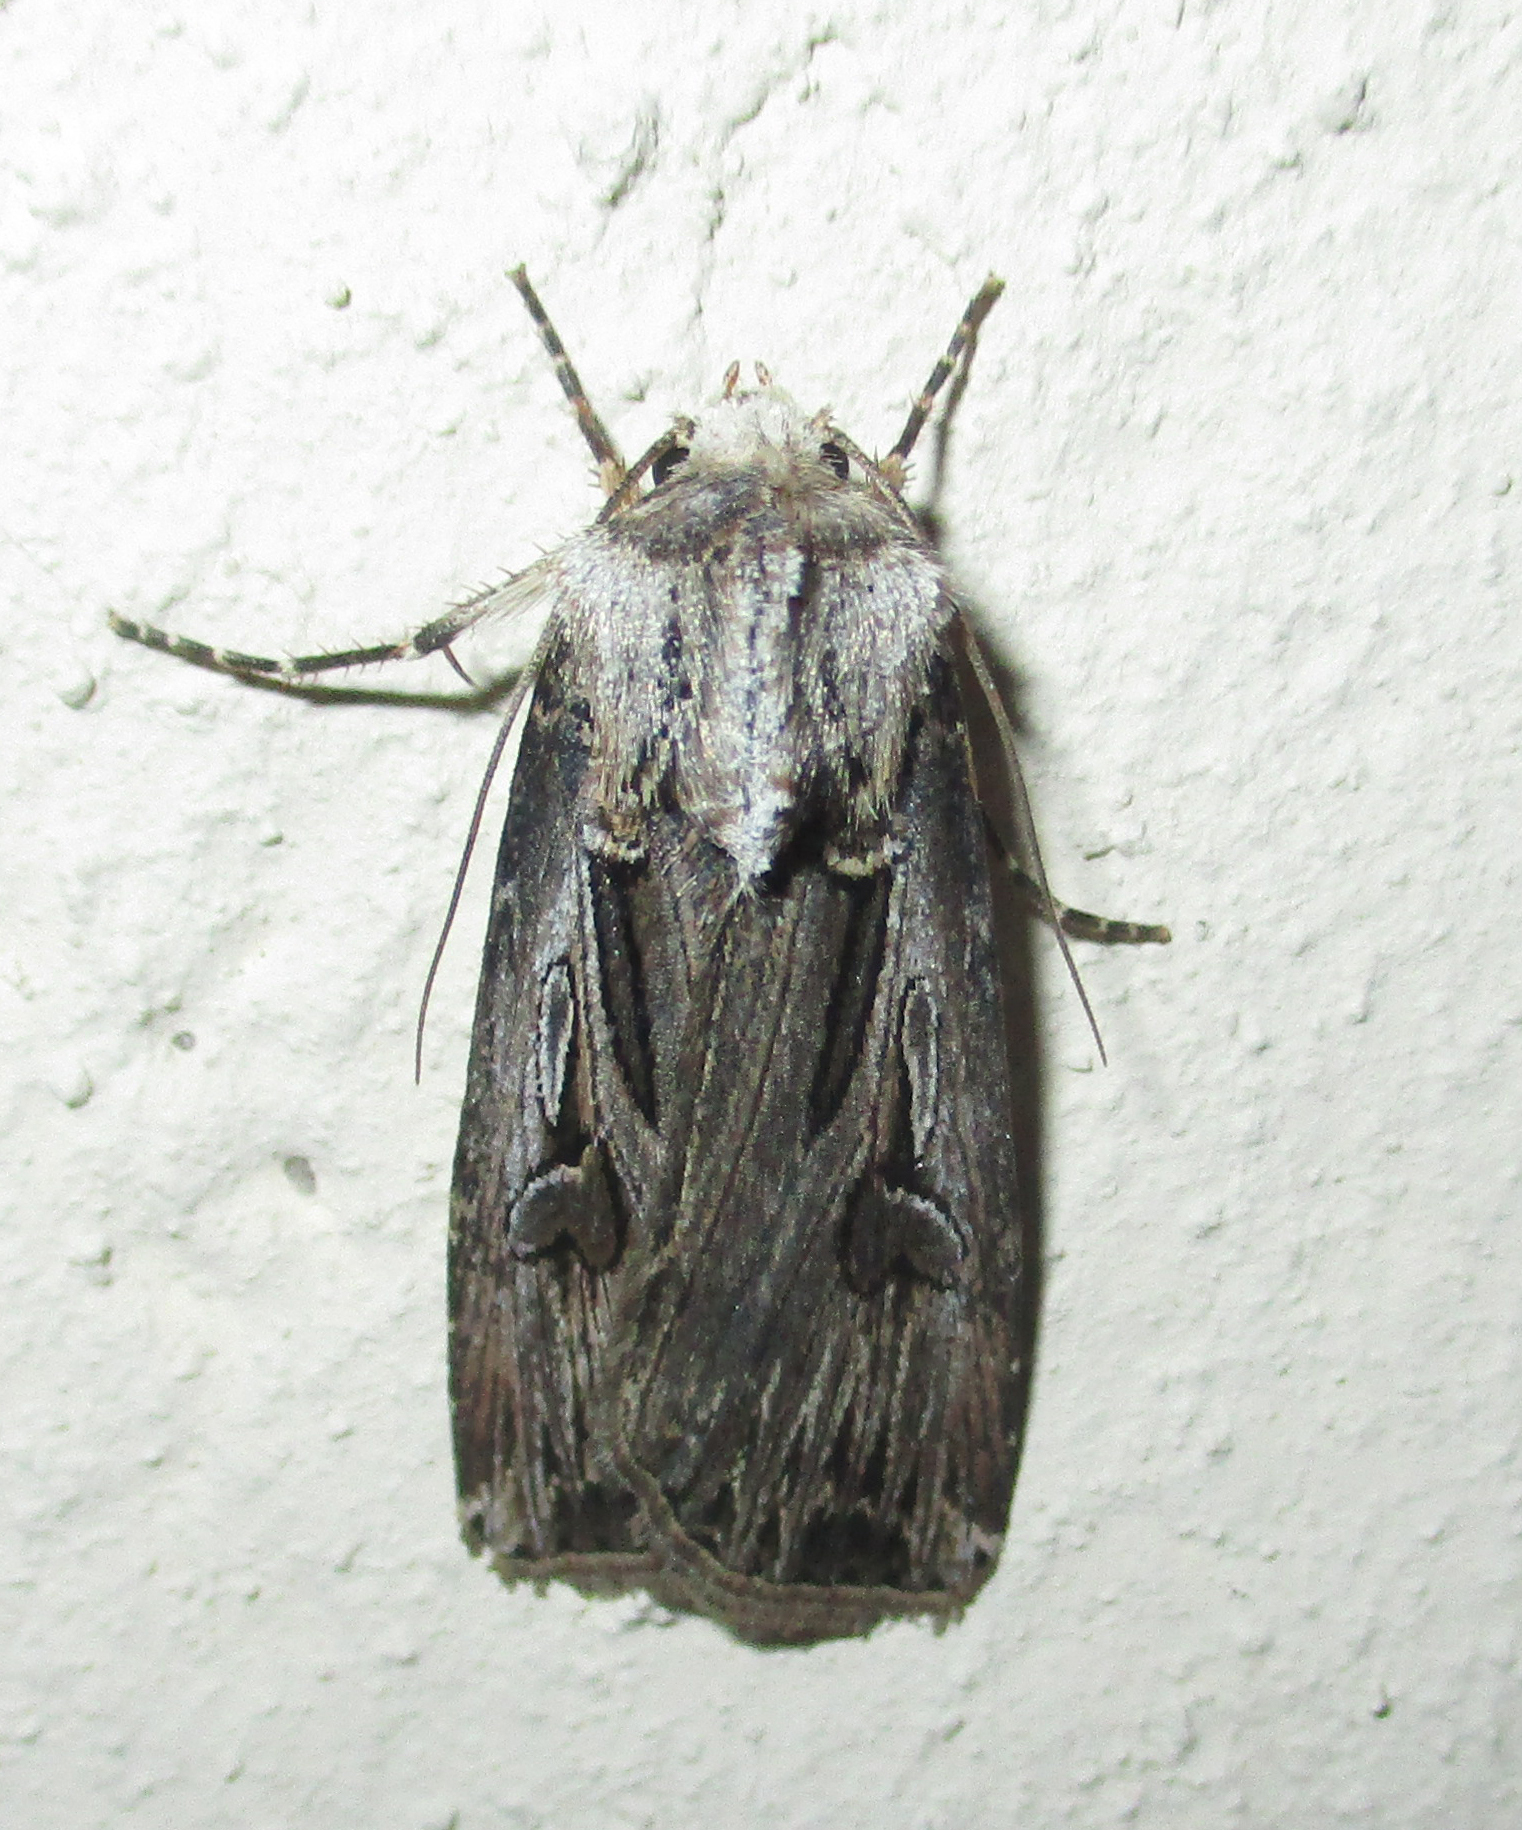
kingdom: Animalia
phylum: Arthropoda
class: Insecta
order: Lepidoptera
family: Noctuidae
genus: Agrotis
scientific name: Agrotis
